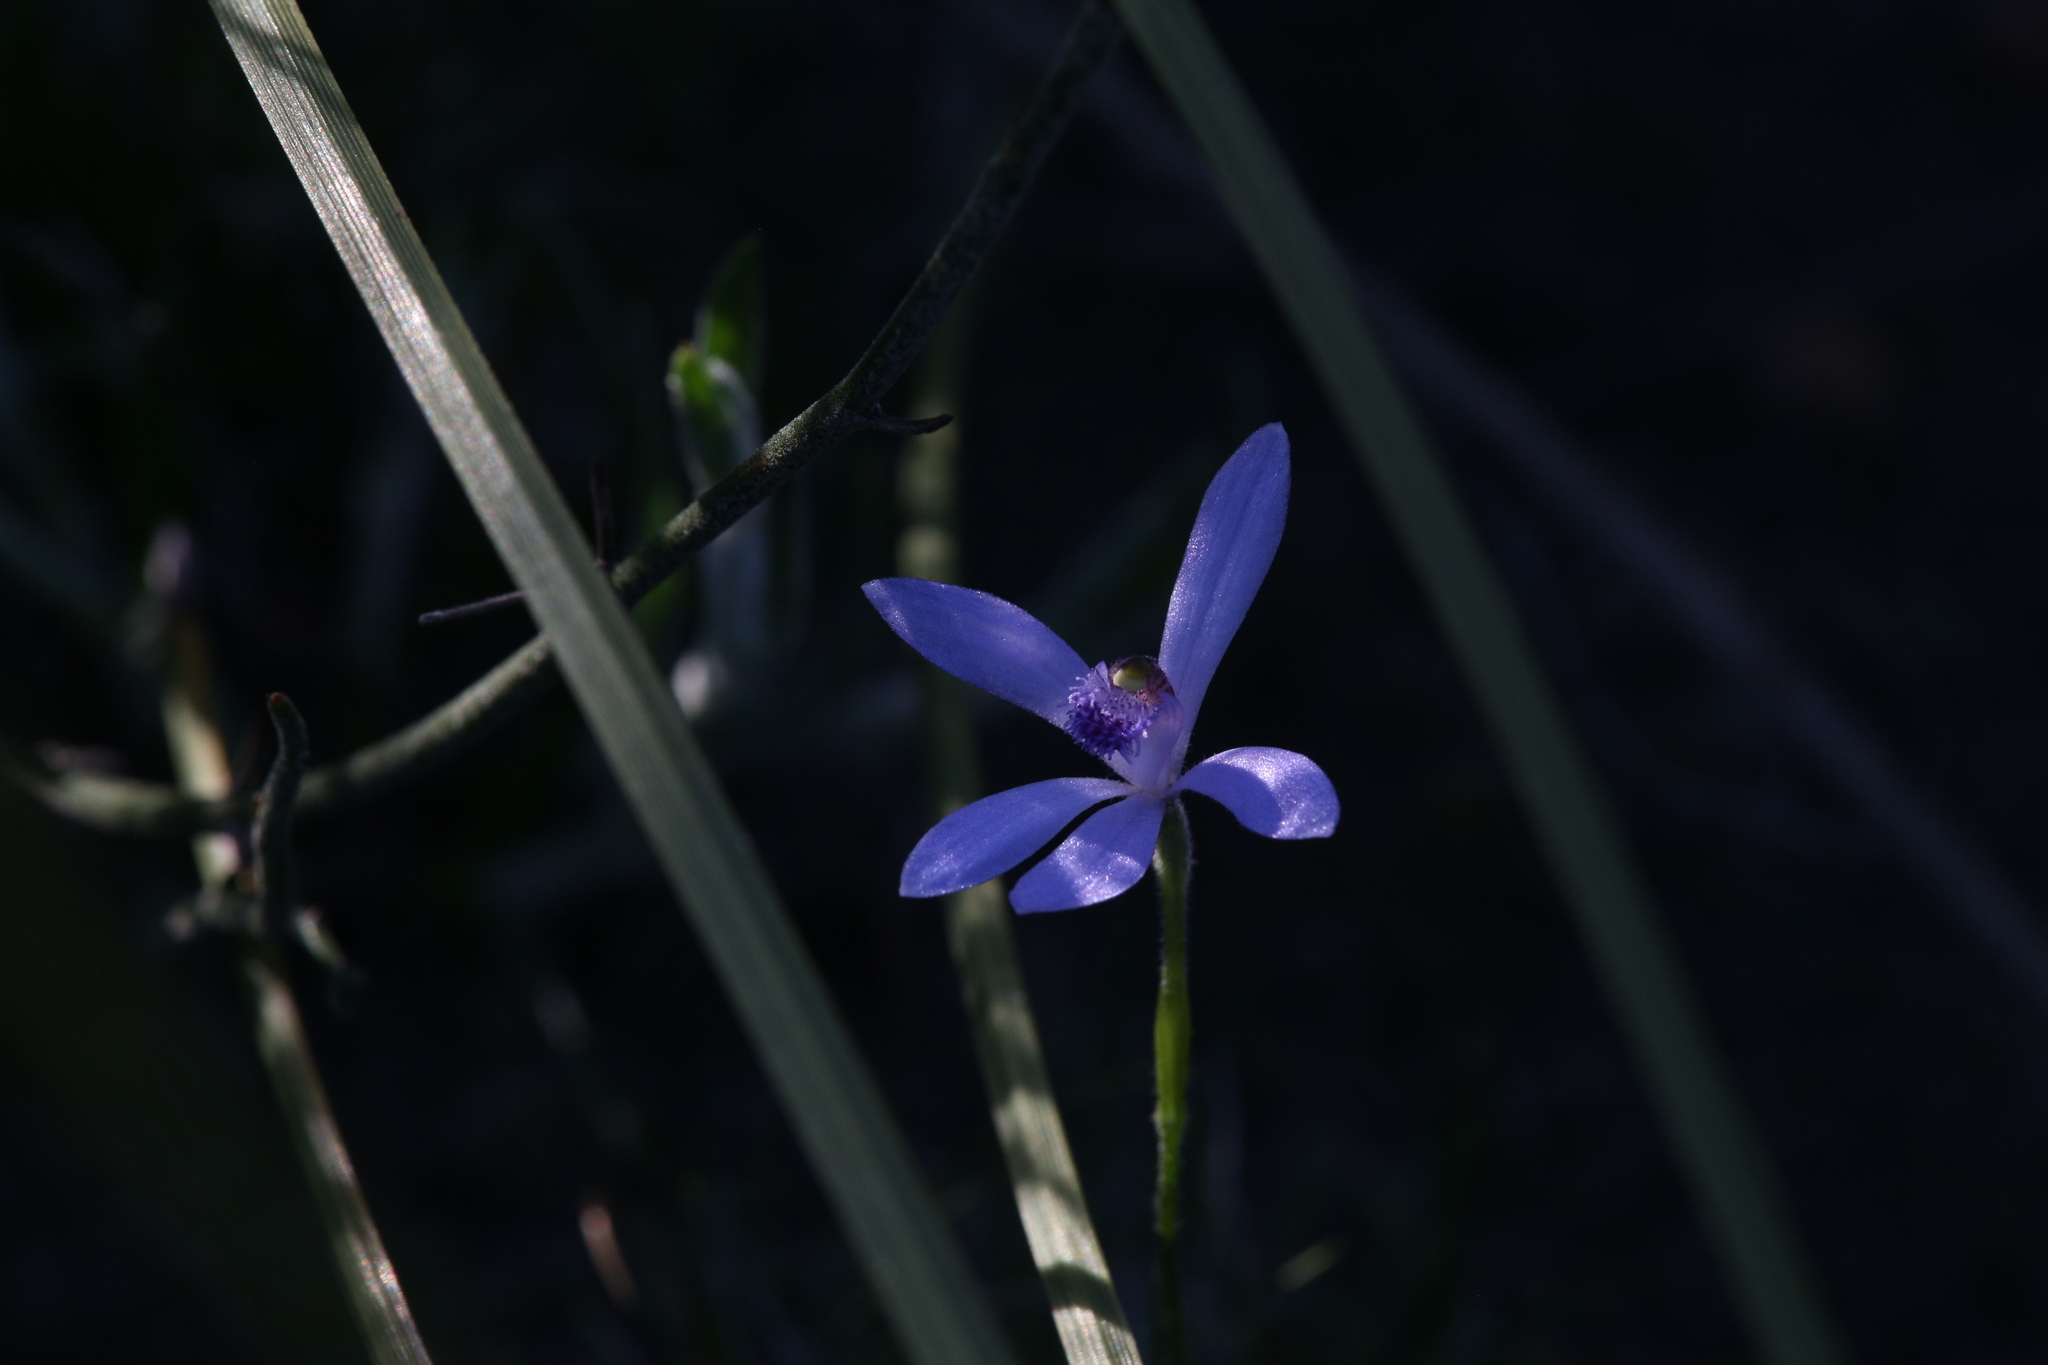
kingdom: Plantae
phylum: Tracheophyta
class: Liliopsida
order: Asparagales
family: Orchidaceae
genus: Pheladenia
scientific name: Pheladenia deformis
